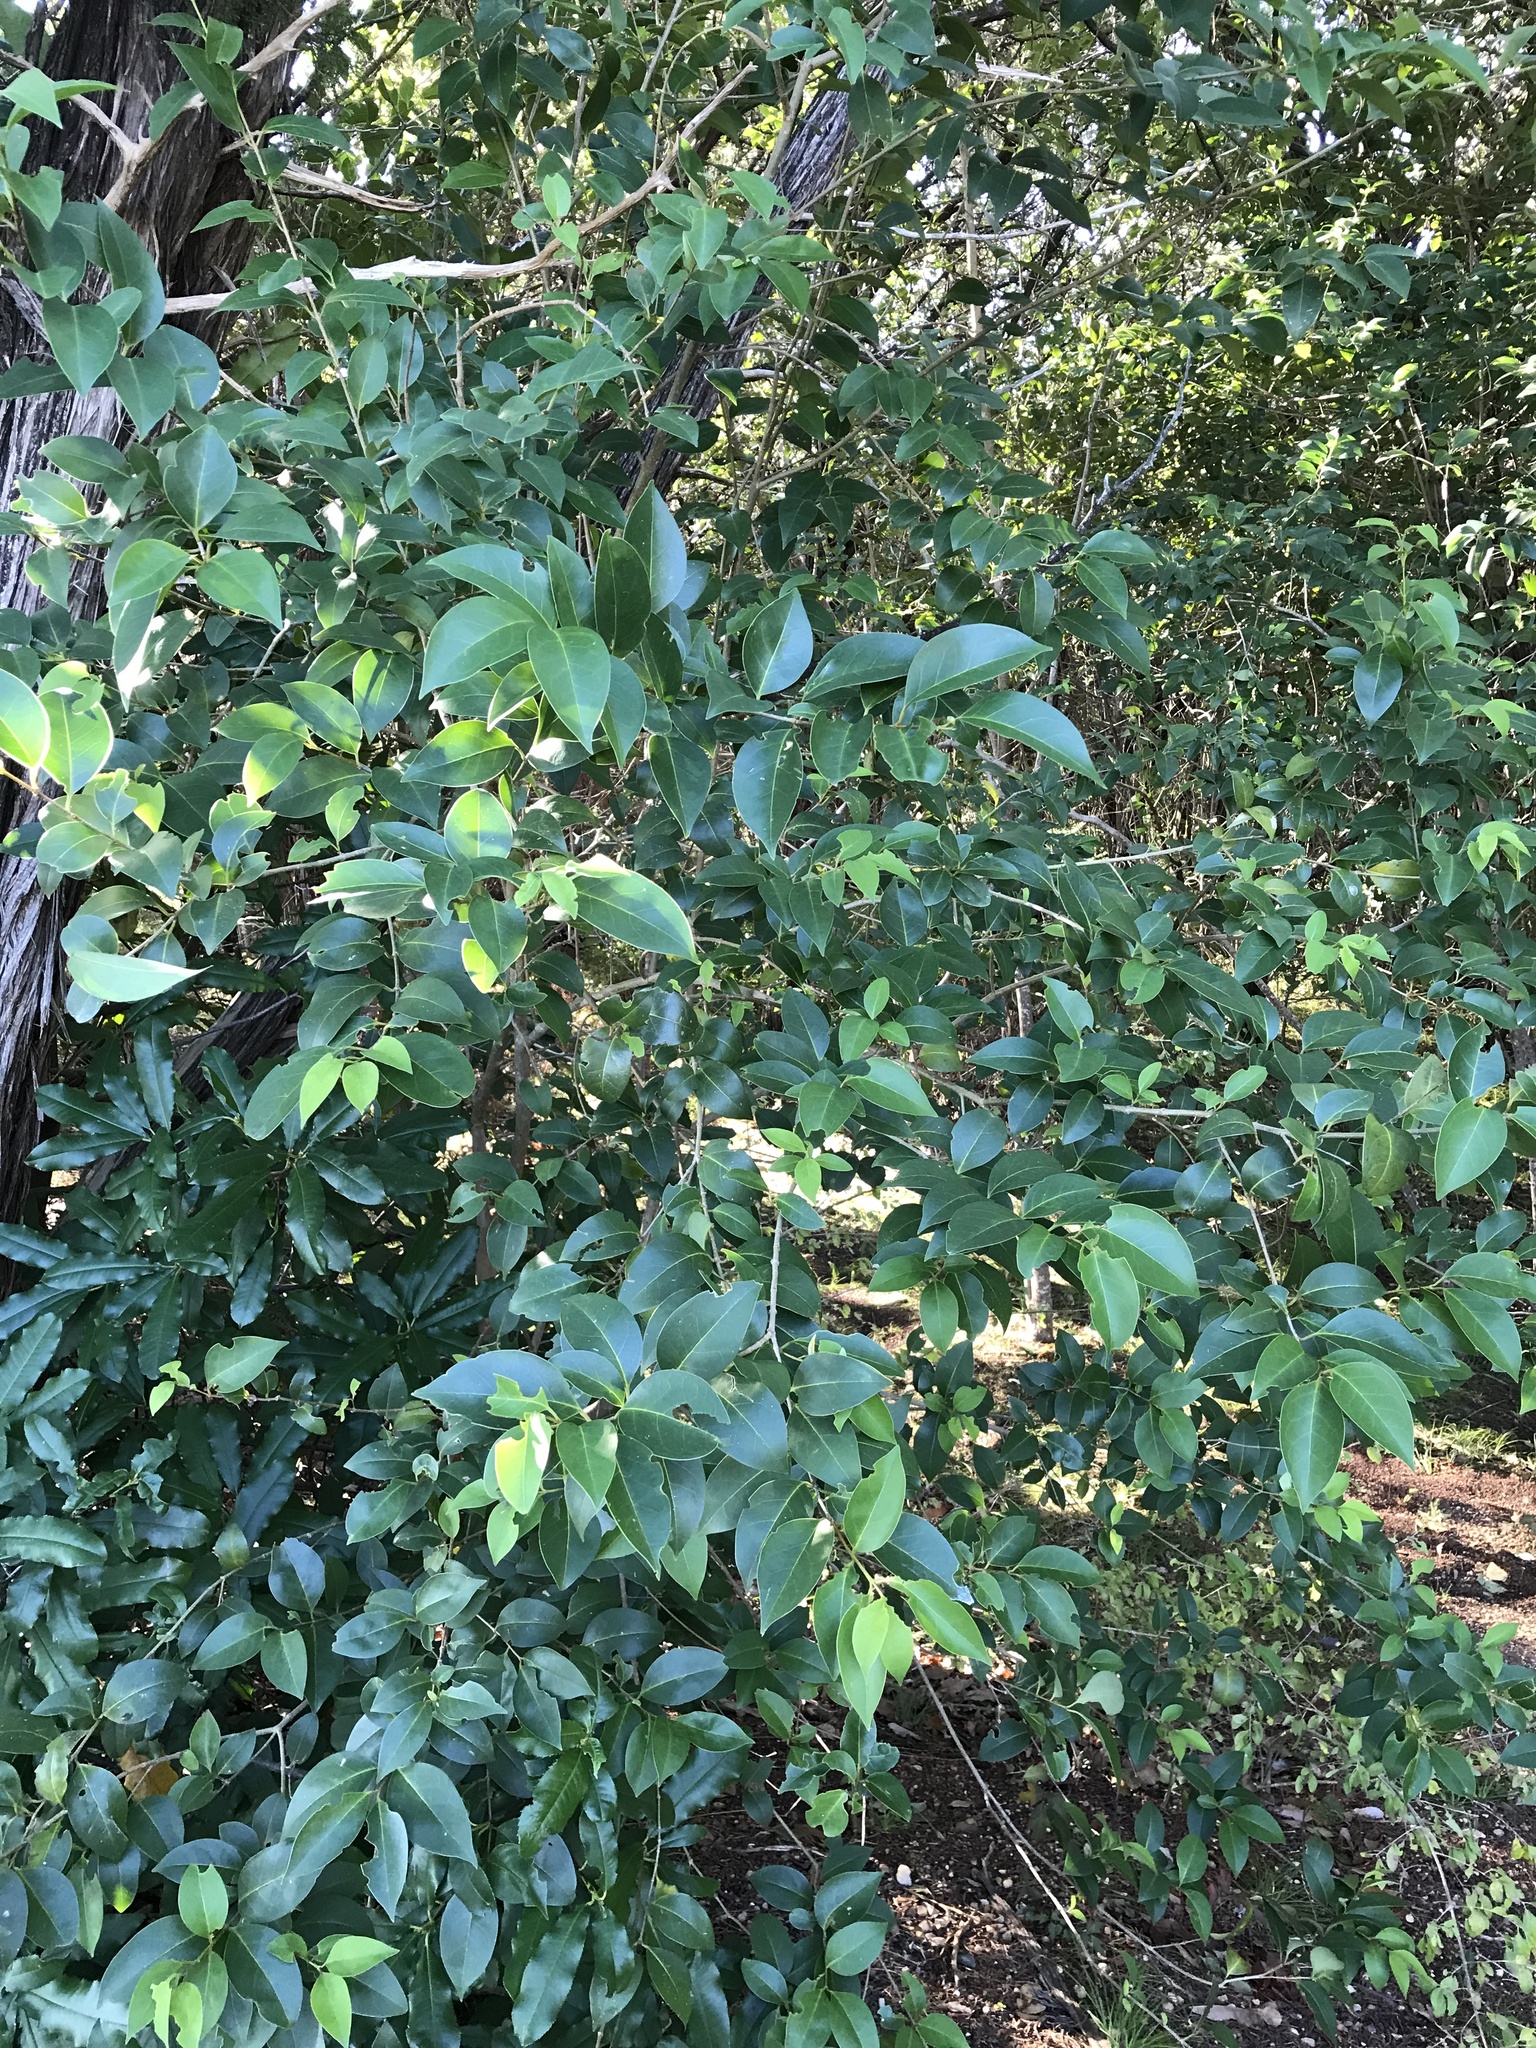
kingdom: Plantae
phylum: Tracheophyta
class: Magnoliopsida
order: Lamiales
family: Oleaceae
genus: Ligustrum
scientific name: Ligustrum lucidum
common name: Glossy privet
